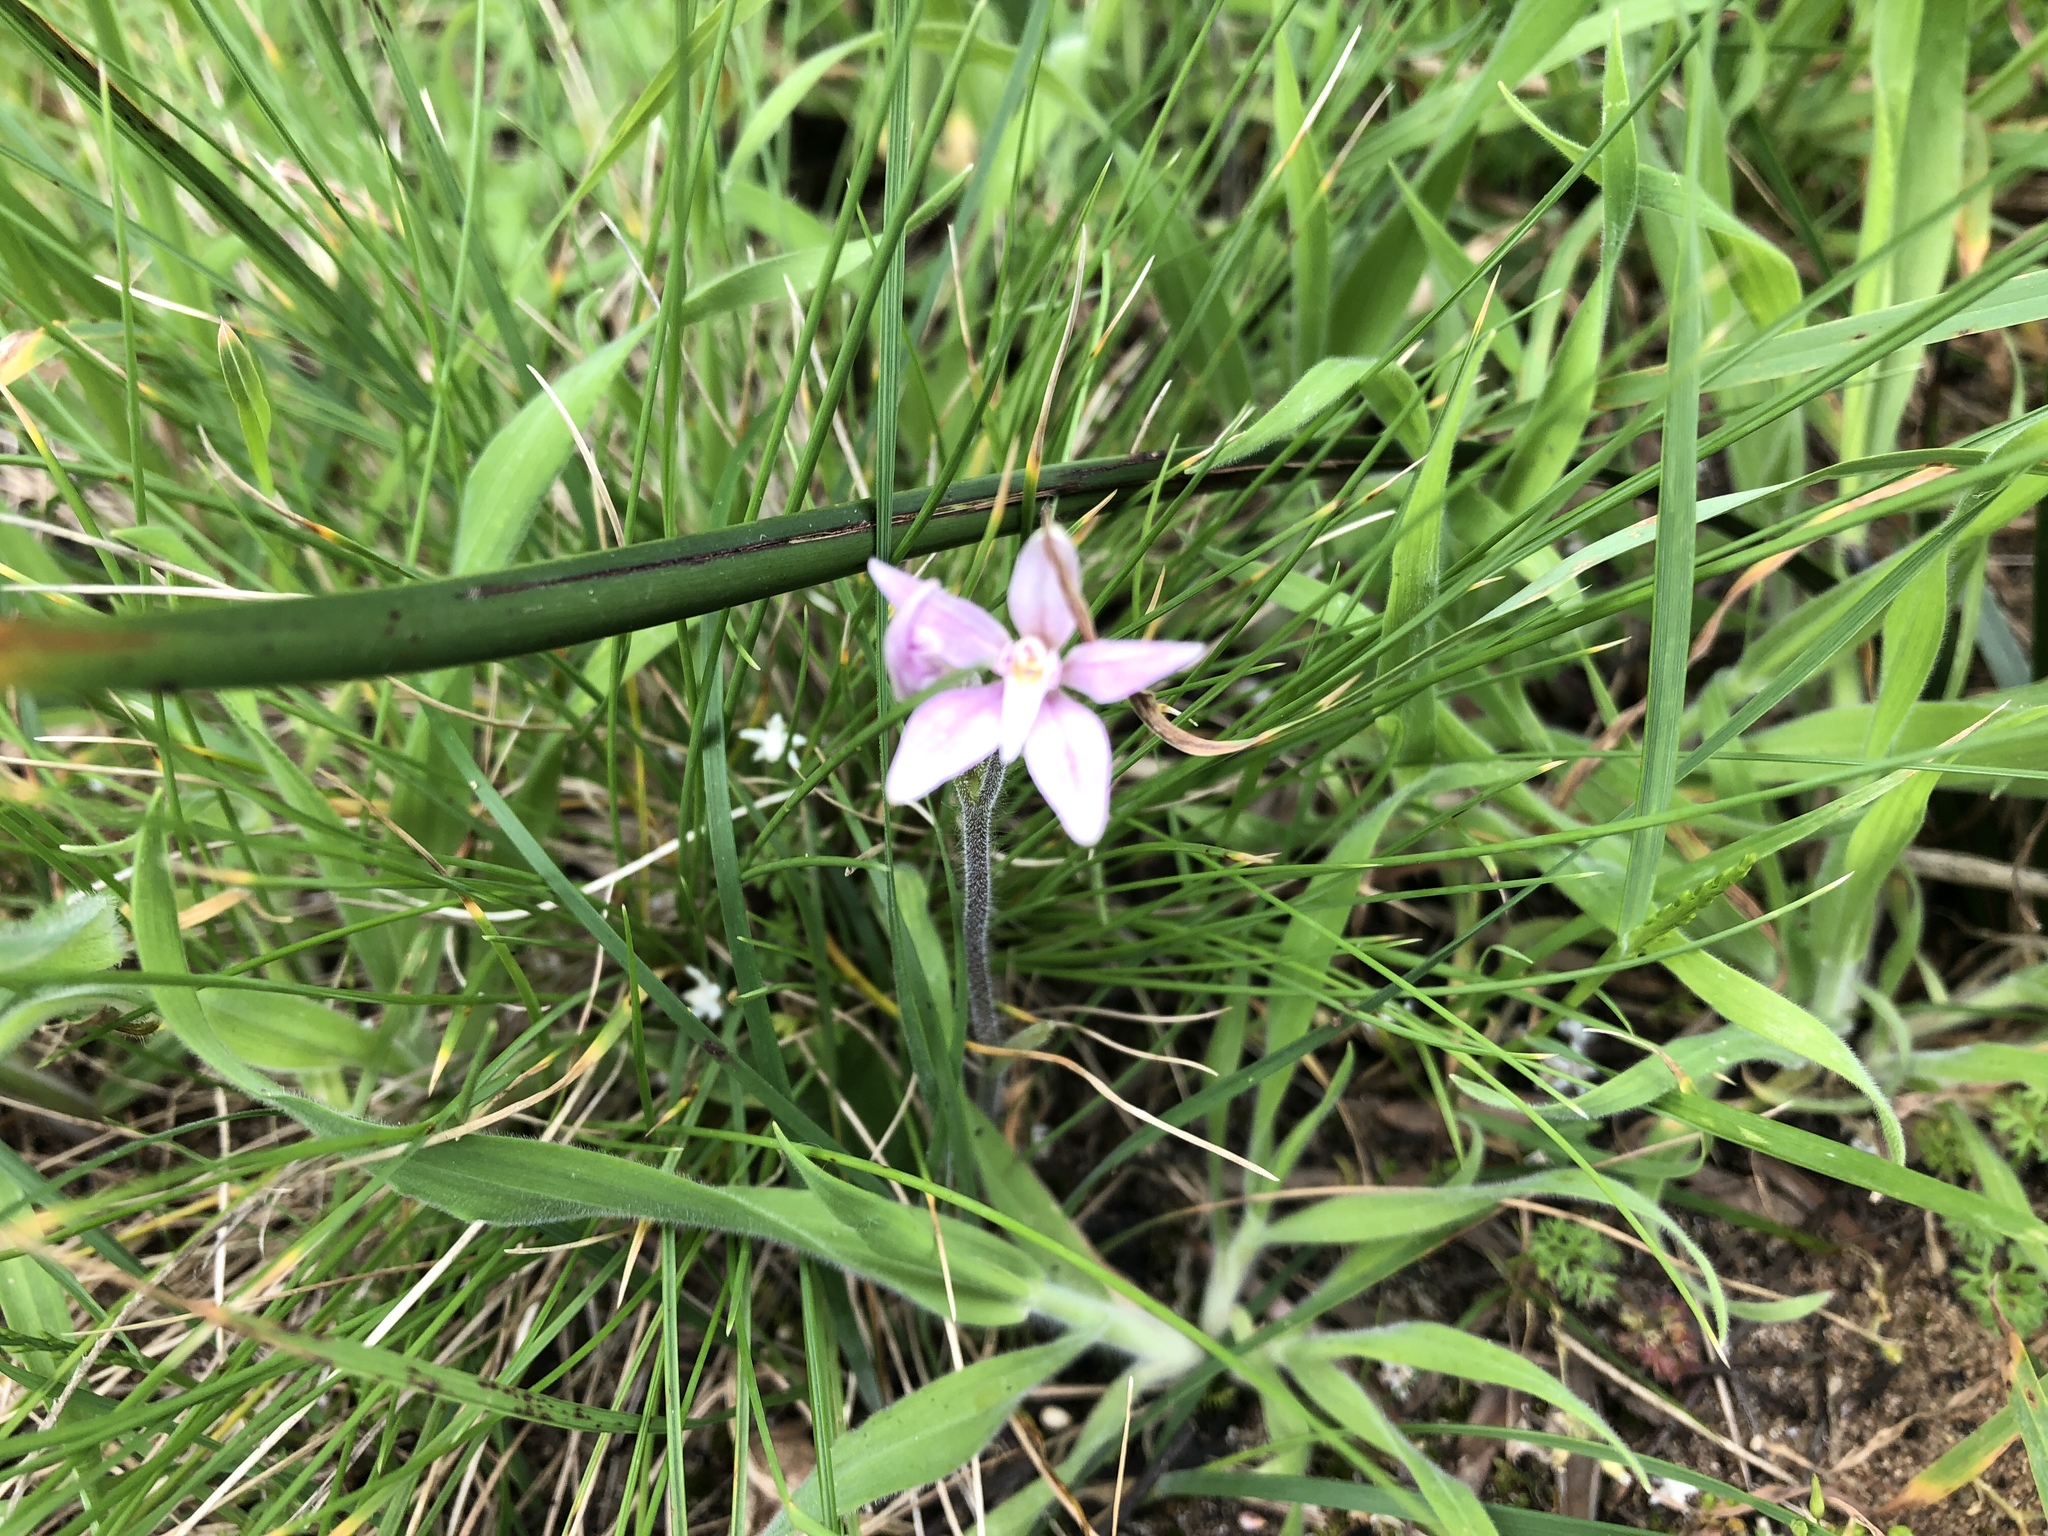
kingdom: Plantae
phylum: Tracheophyta
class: Liliopsida
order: Asparagales
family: Orchidaceae
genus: Caladenia
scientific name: Caladenia latifolia
